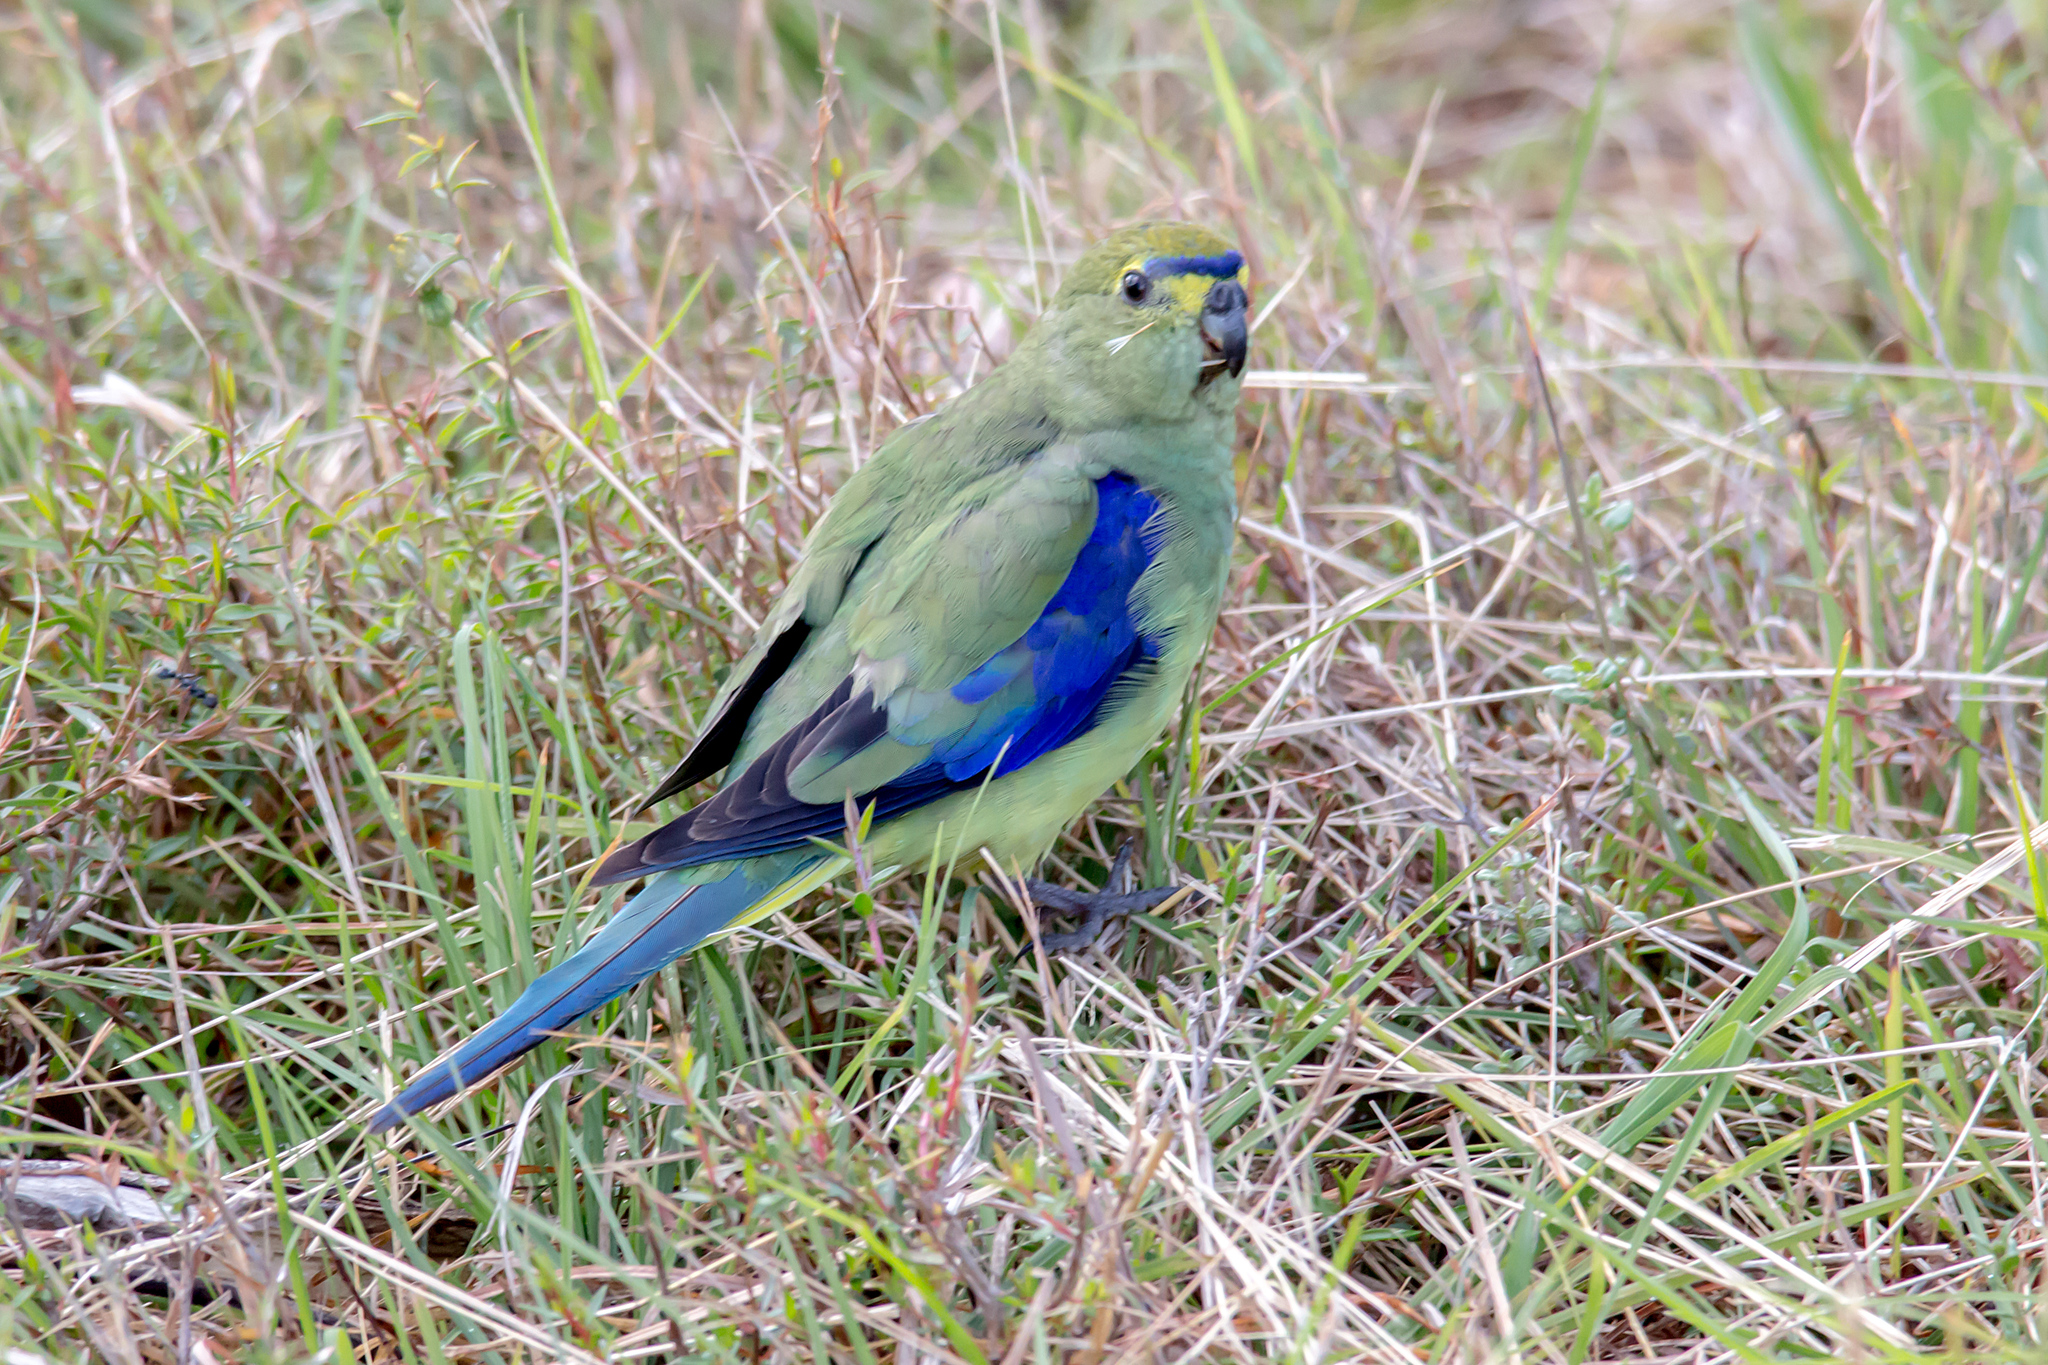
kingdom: Animalia
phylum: Chordata
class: Aves
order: Psittaciformes
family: Psittacidae
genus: Neophema
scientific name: Neophema chrysostoma
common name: Blue-winged parrot
